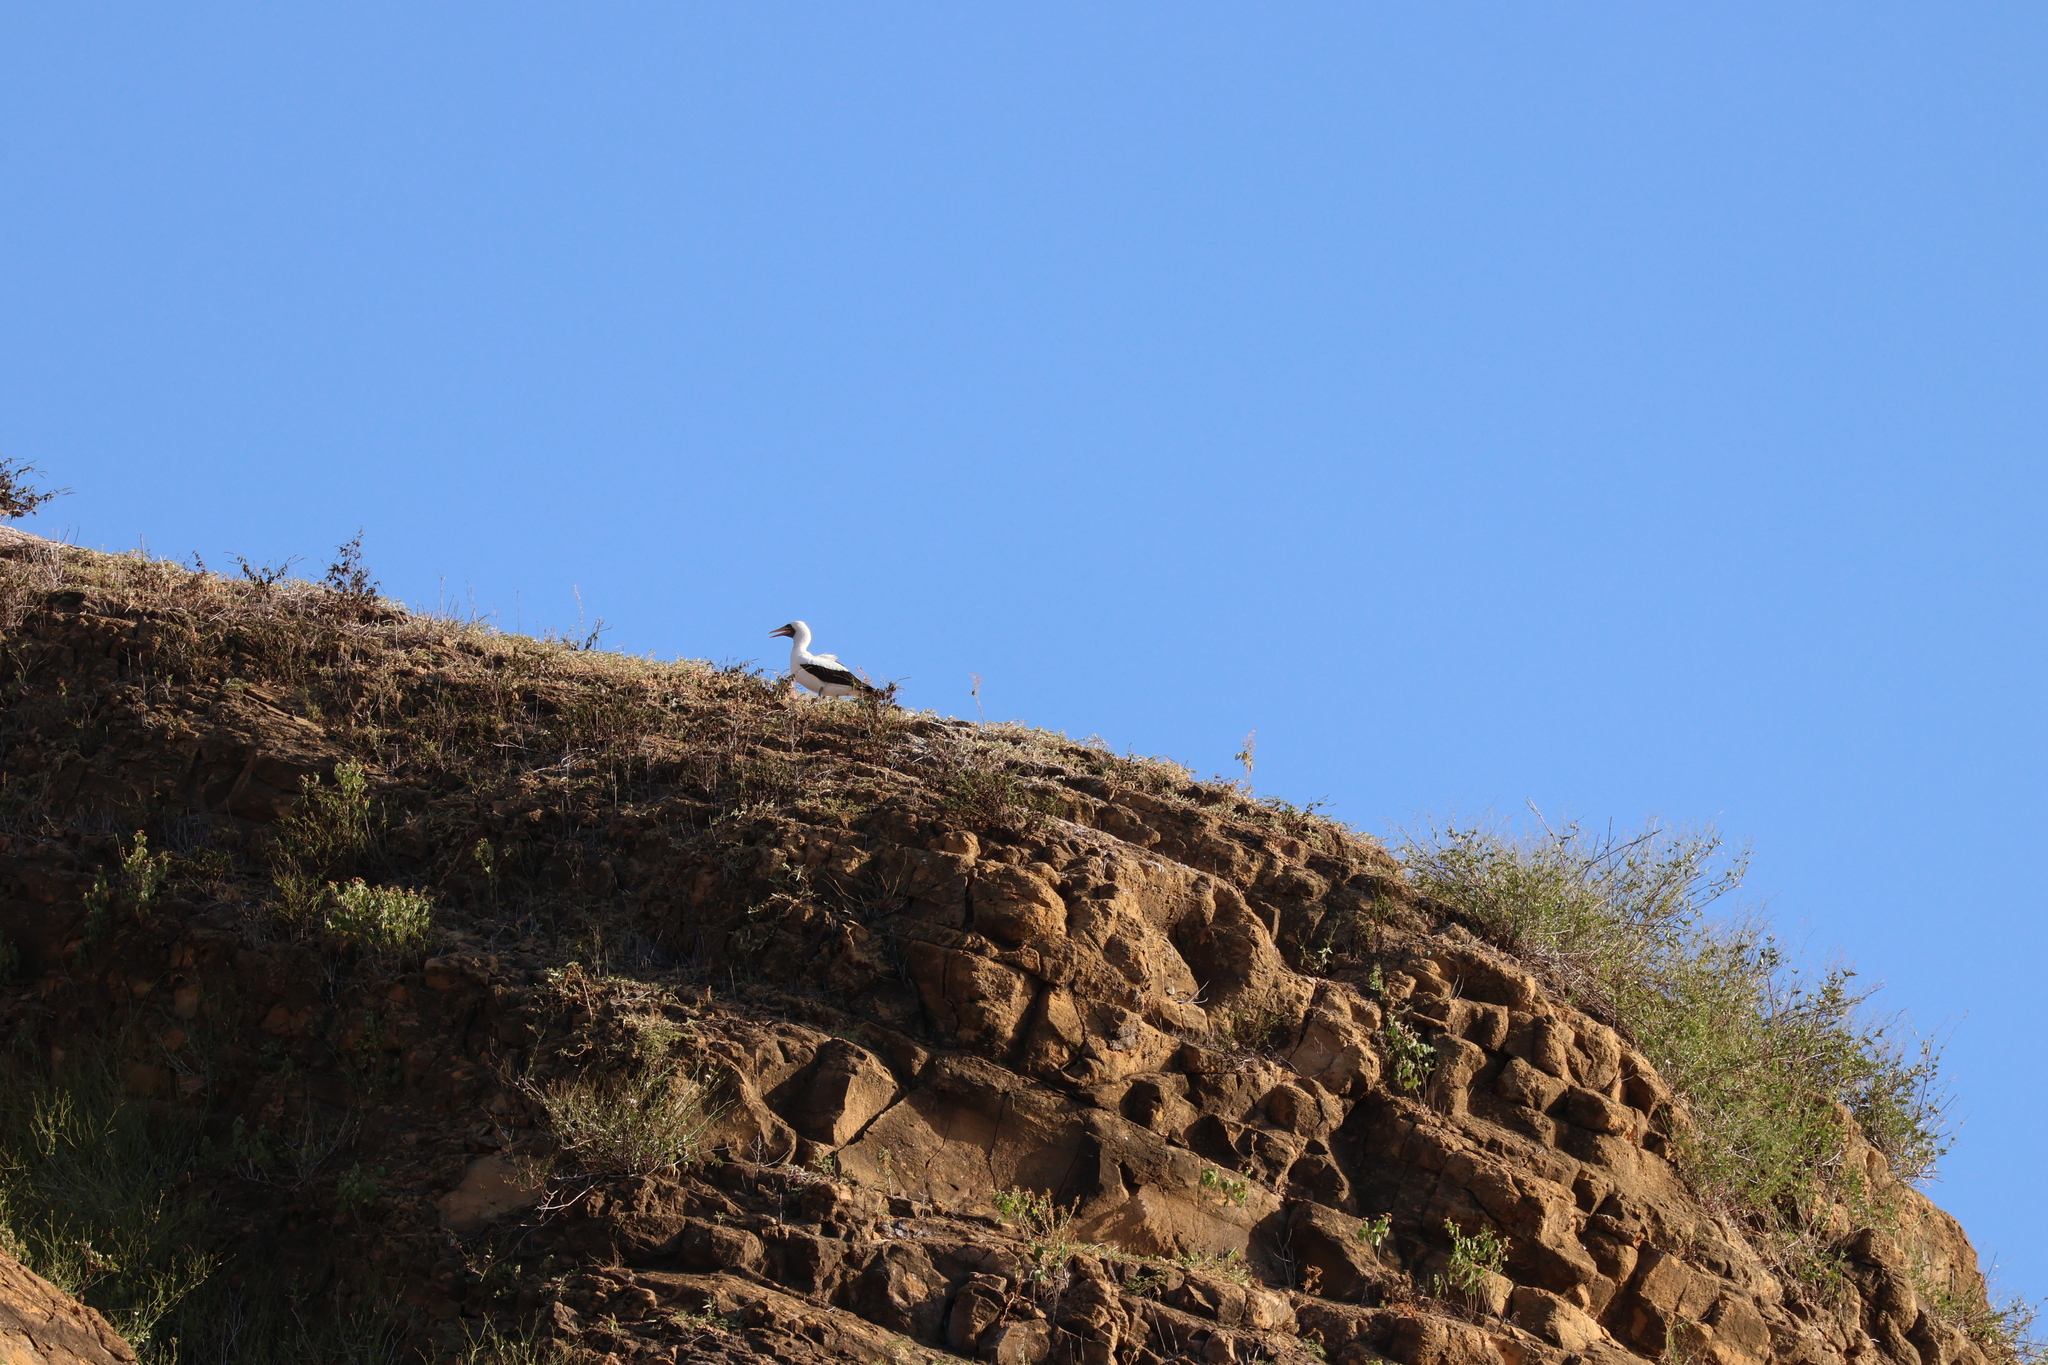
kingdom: Animalia
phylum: Chordata
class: Aves
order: Suliformes
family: Sulidae
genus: Sula
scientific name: Sula granti
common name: Nazca booby
